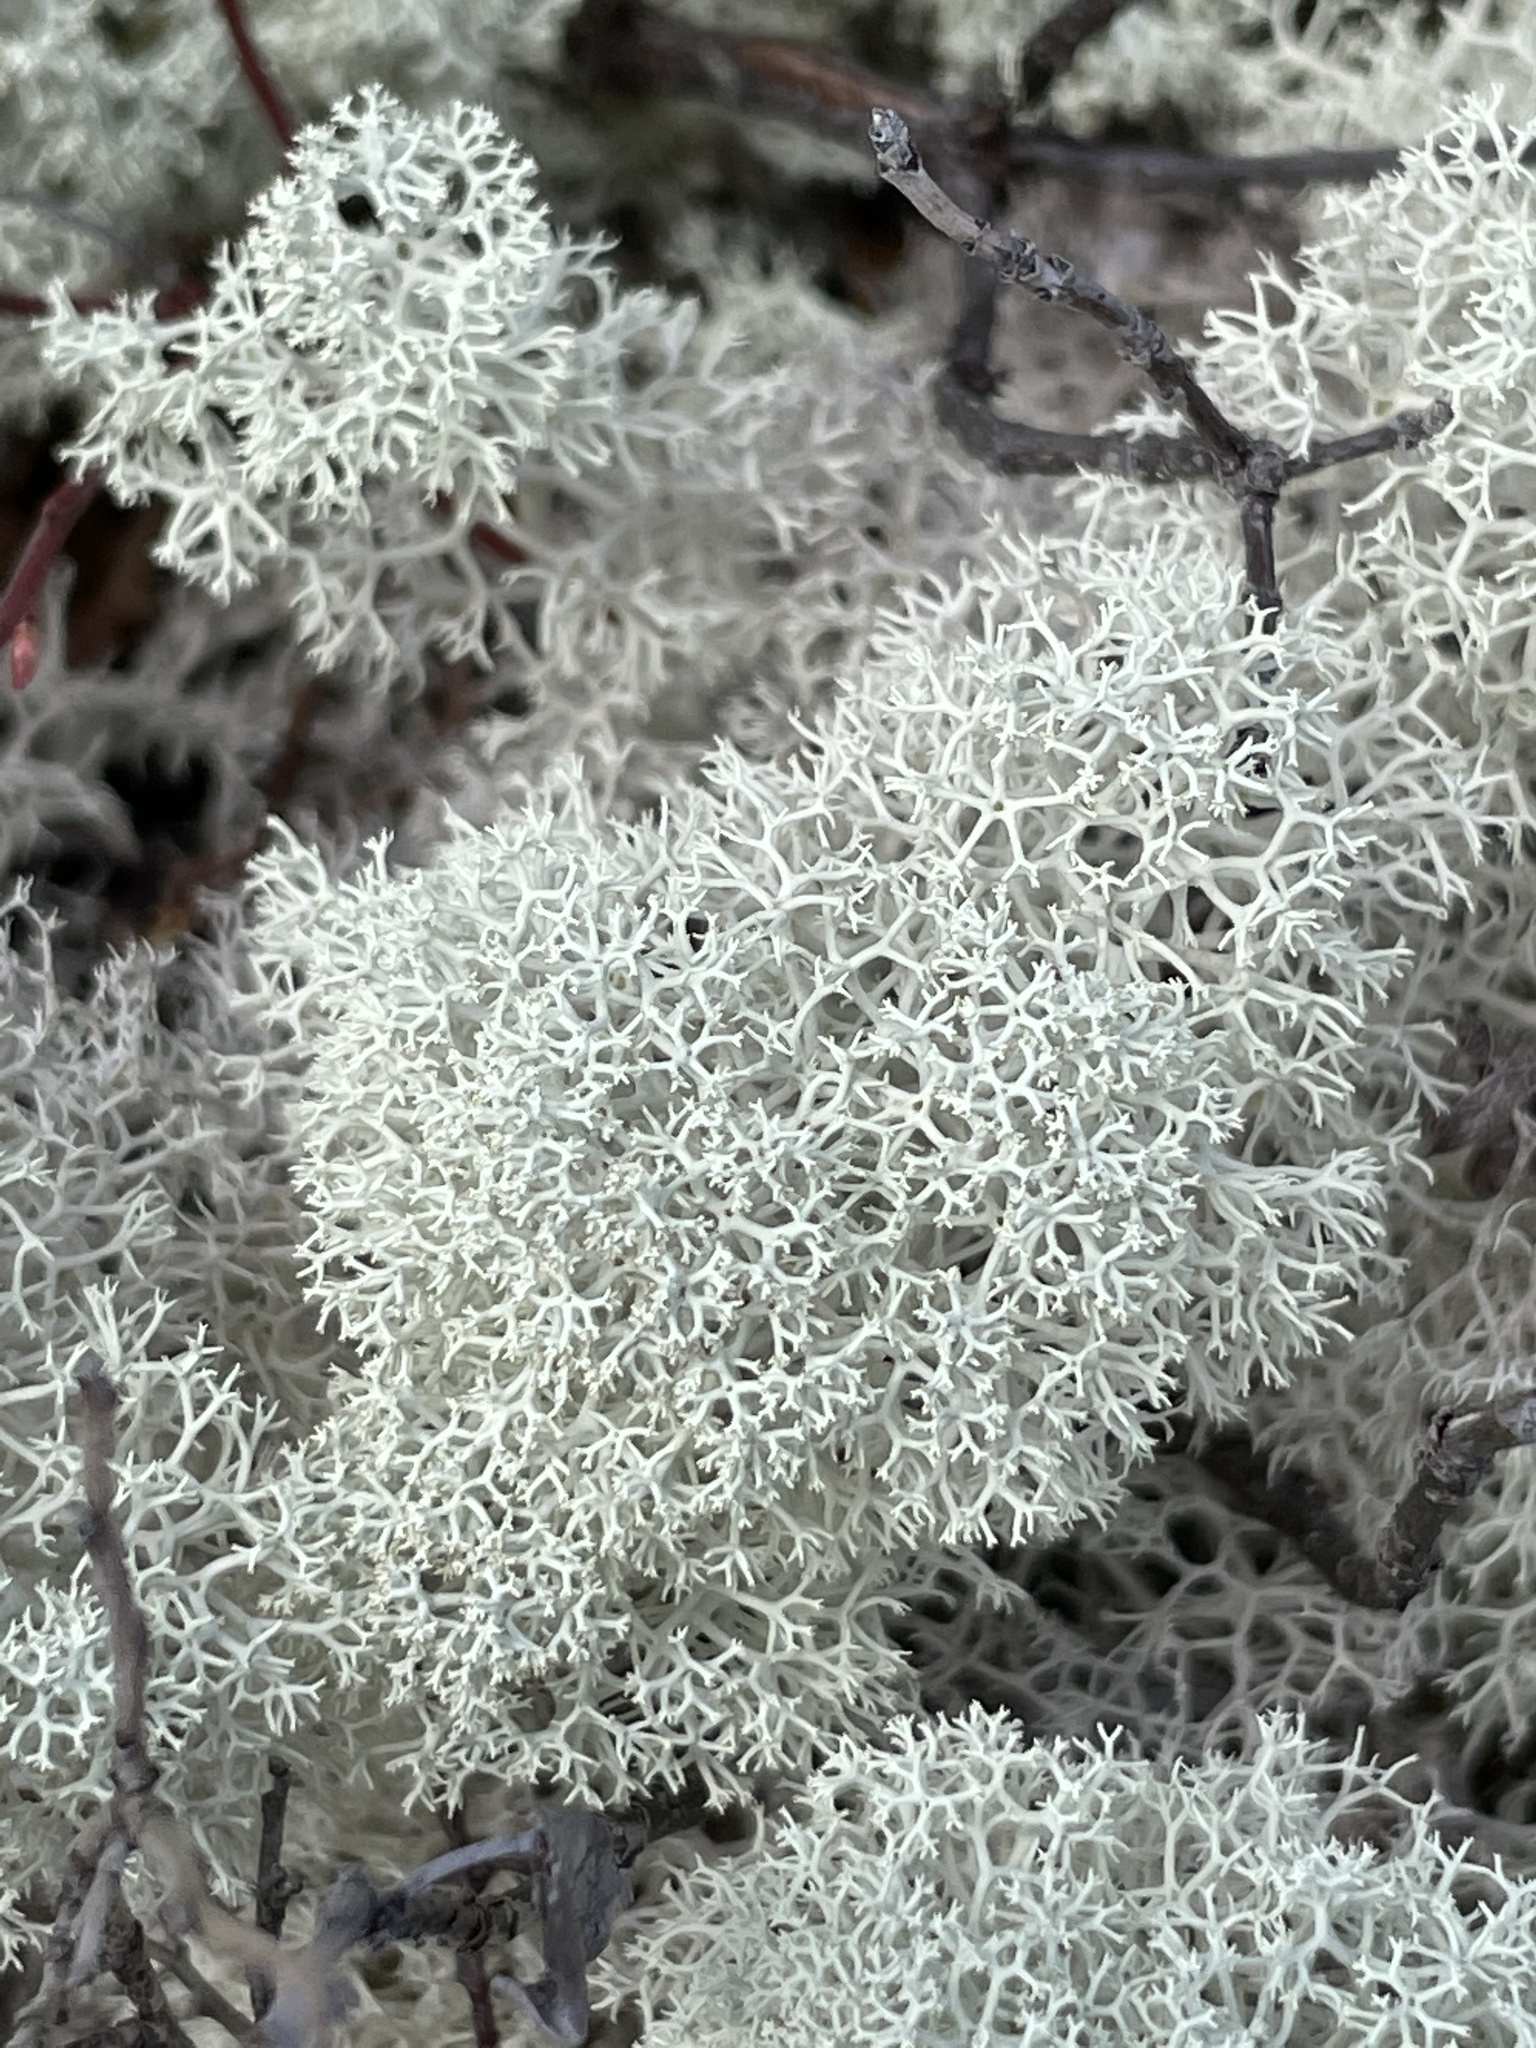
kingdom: Fungi
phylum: Ascomycota
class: Lecanoromycetes
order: Lecanorales
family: Cladoniaceae
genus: Cladonia
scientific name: Cladonia stellaris
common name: Star-tipped reindeer lichen
